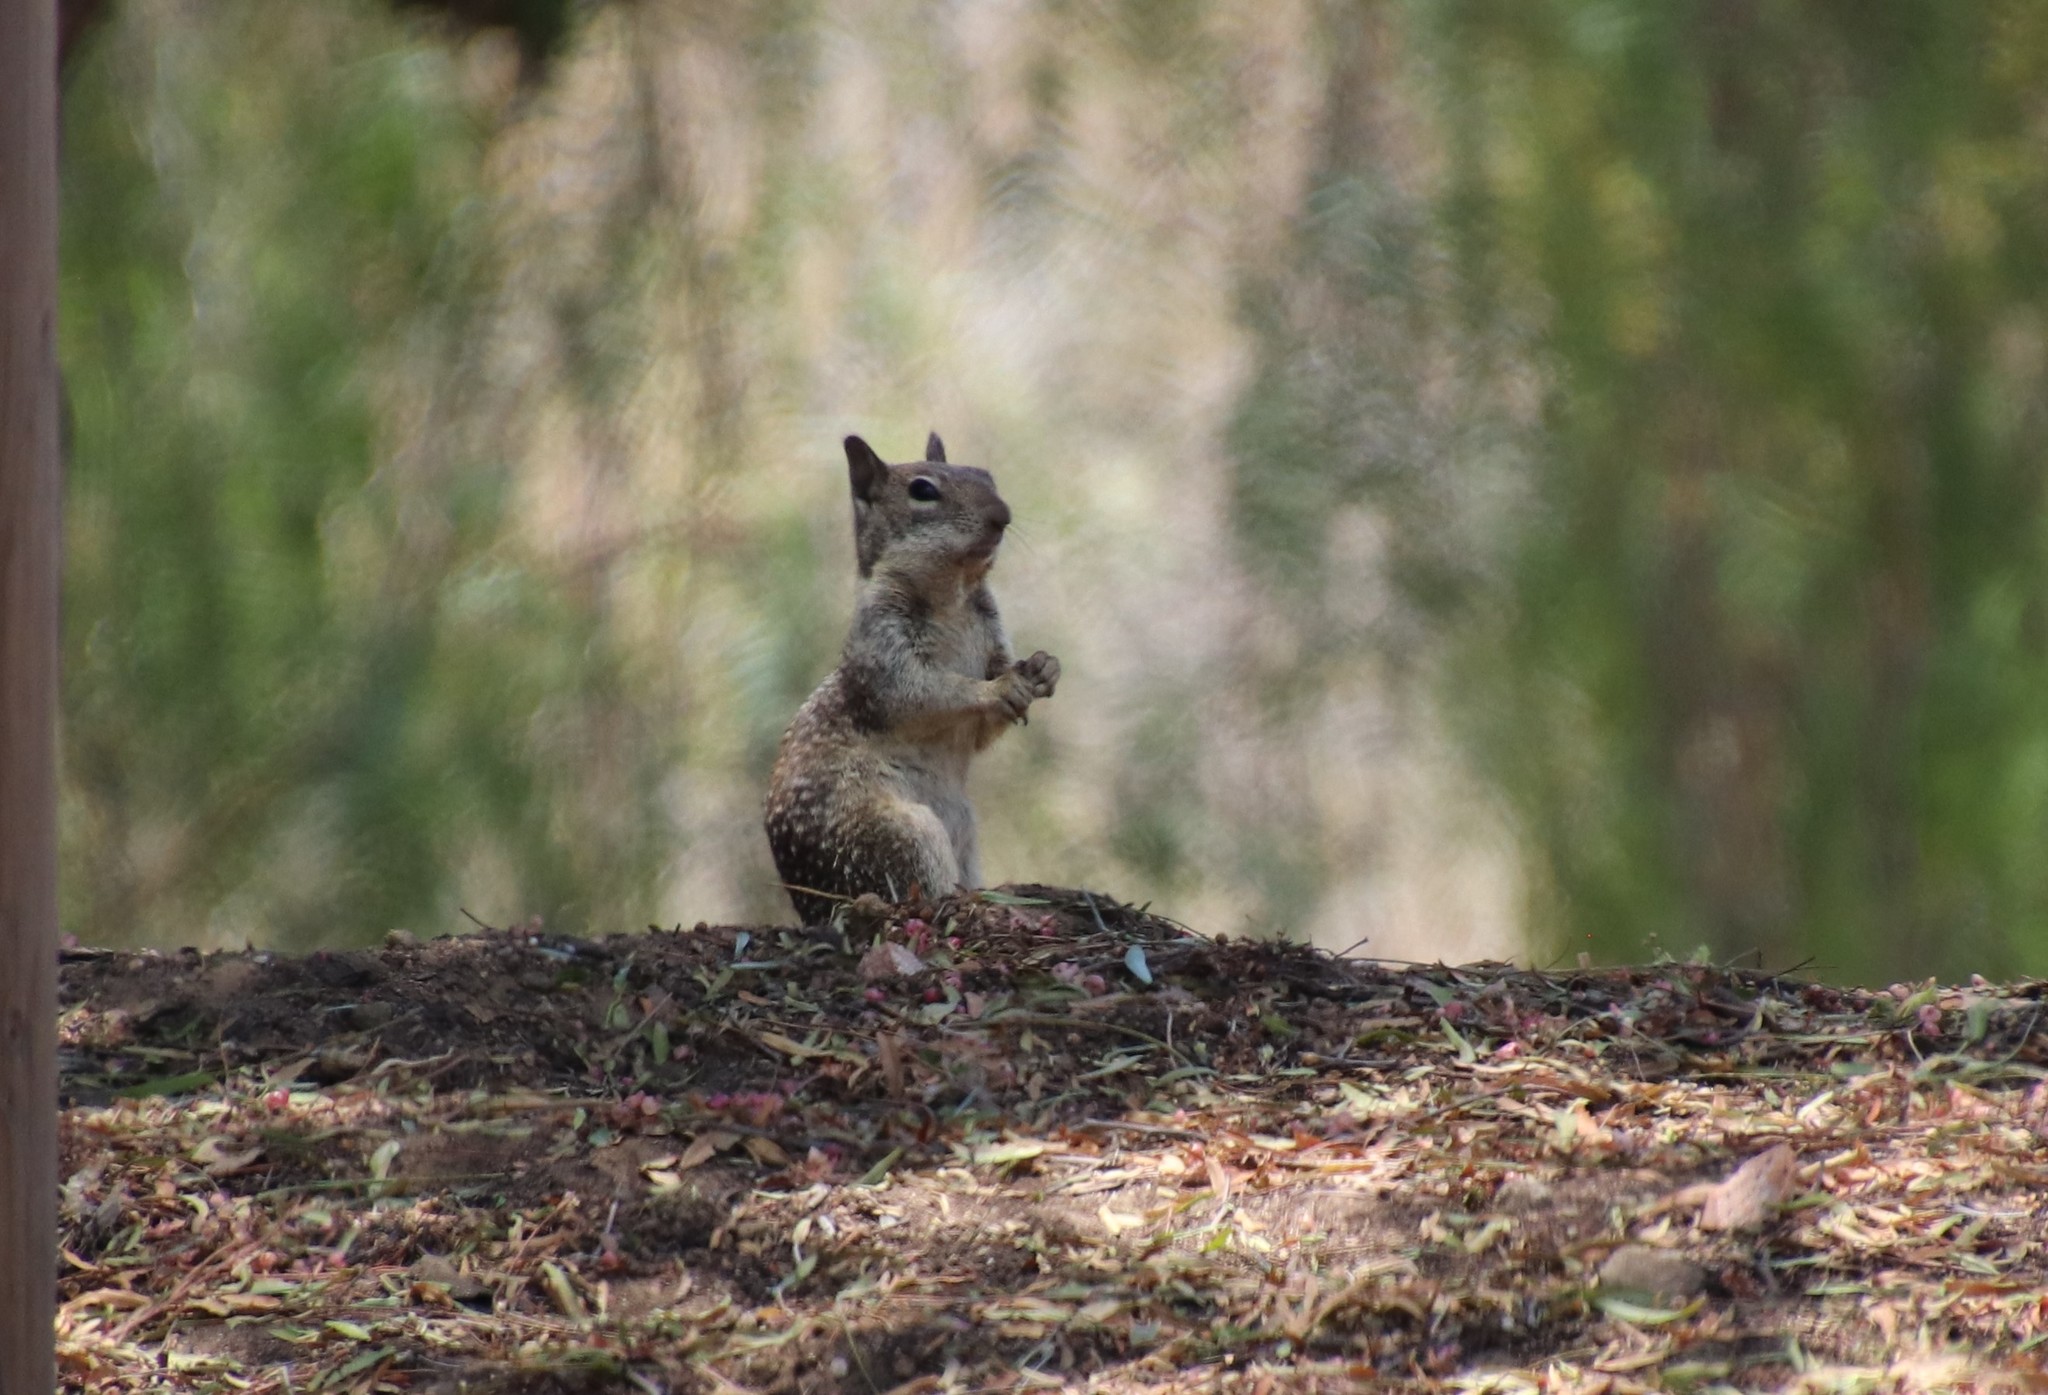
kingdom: Animalia
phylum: Chordata
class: Mammalia
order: Rodentia
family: Sciuridae
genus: Otospermophilus
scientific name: Otospermophilus beecheyi
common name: California ground squirrel
